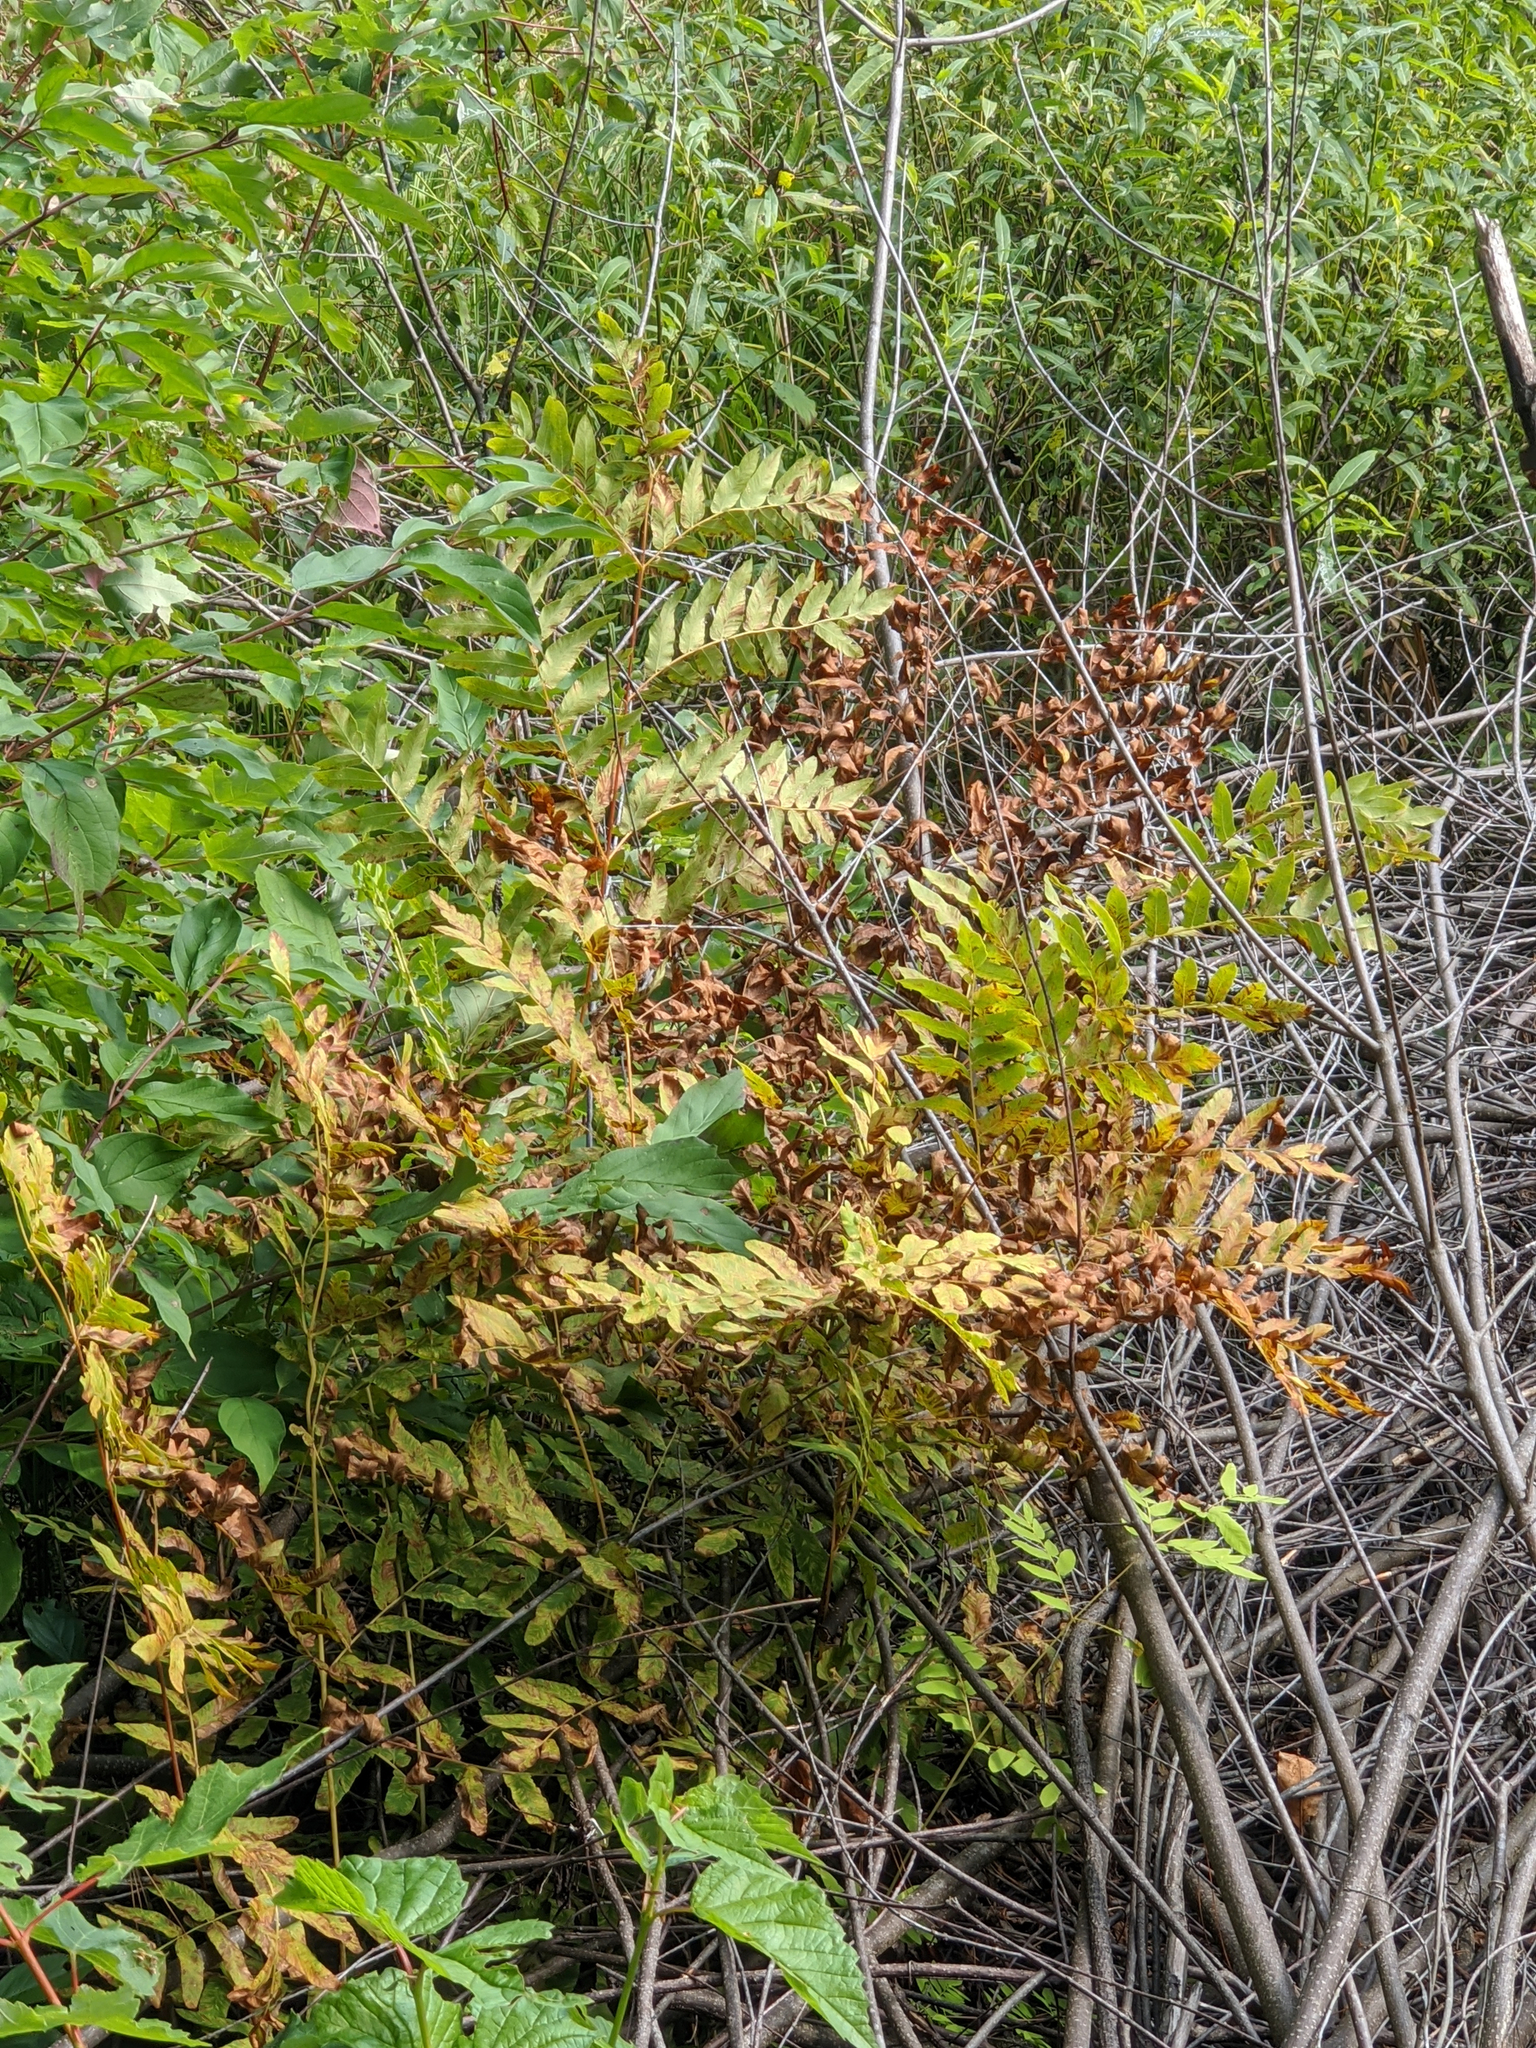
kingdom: Plantae
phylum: Tracheophyta
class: Polypodiopsida
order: Osmundales
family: Osmundaceae
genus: Osmunda
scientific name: Osmunda spectabilis
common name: American royal fern
